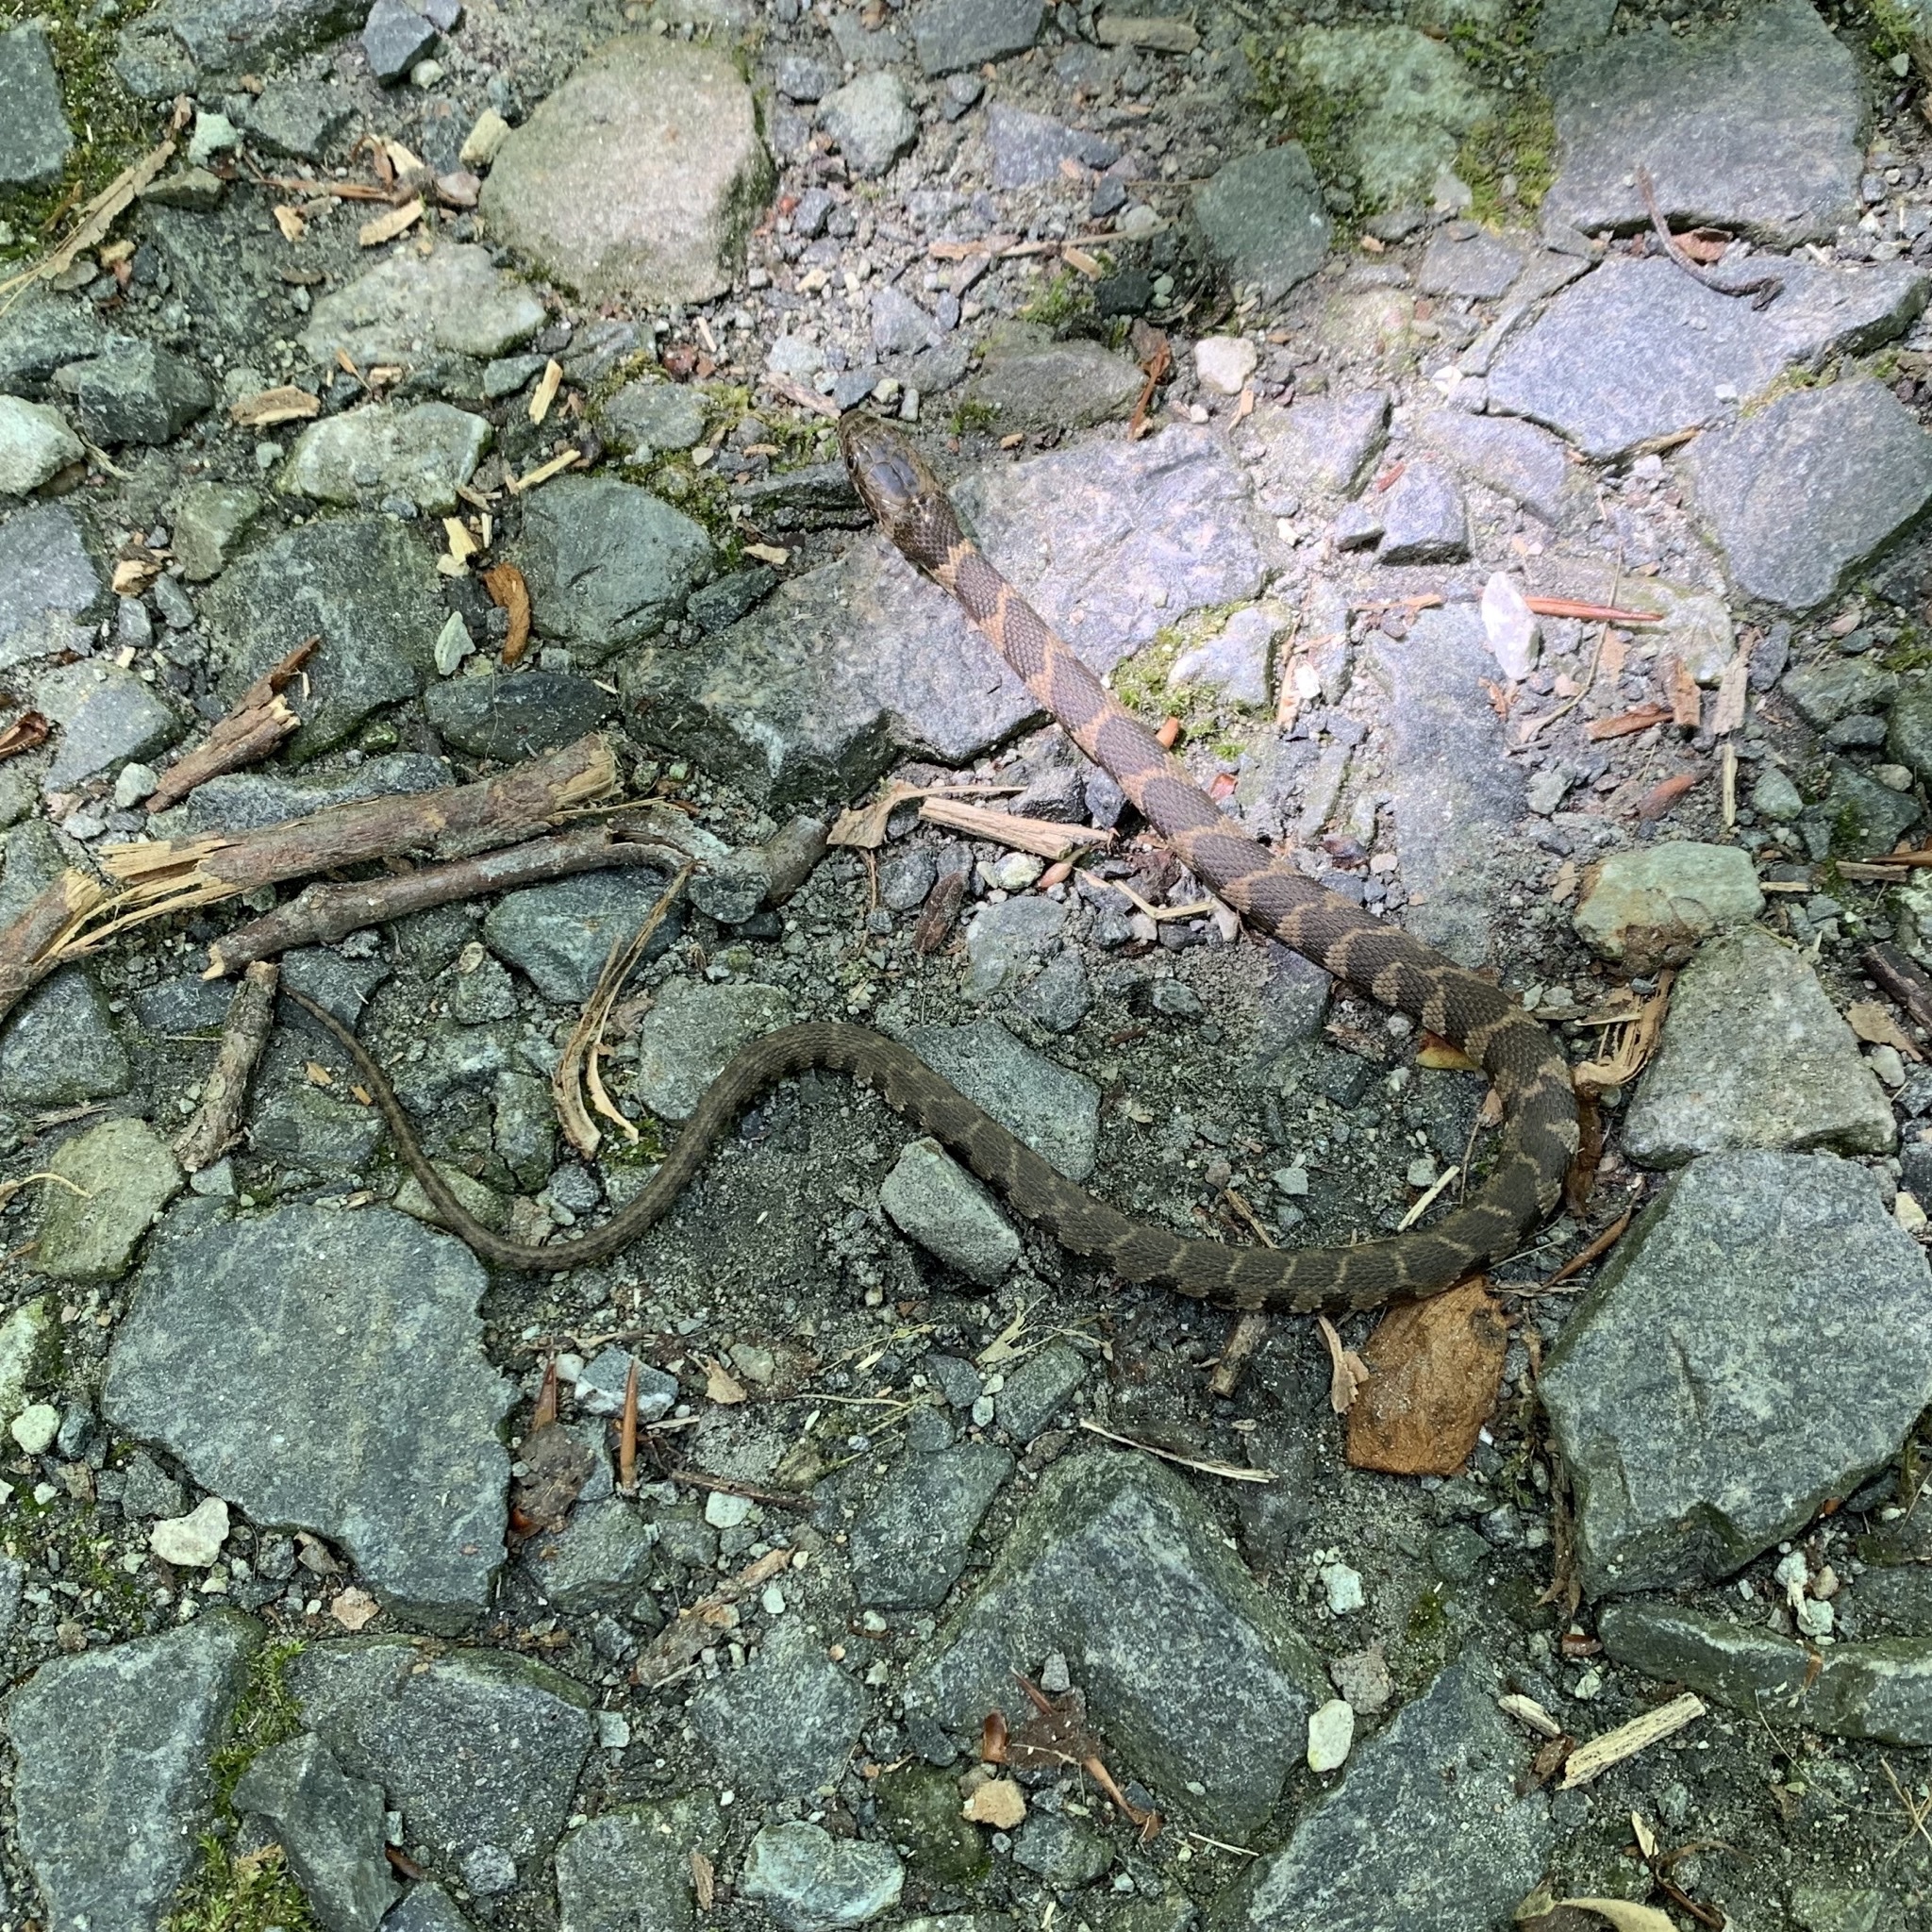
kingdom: Animalia
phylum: Chordata
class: Squamata
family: Colubridae
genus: Nerodia
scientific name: Nerodia sipedon
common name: Northern water snake
